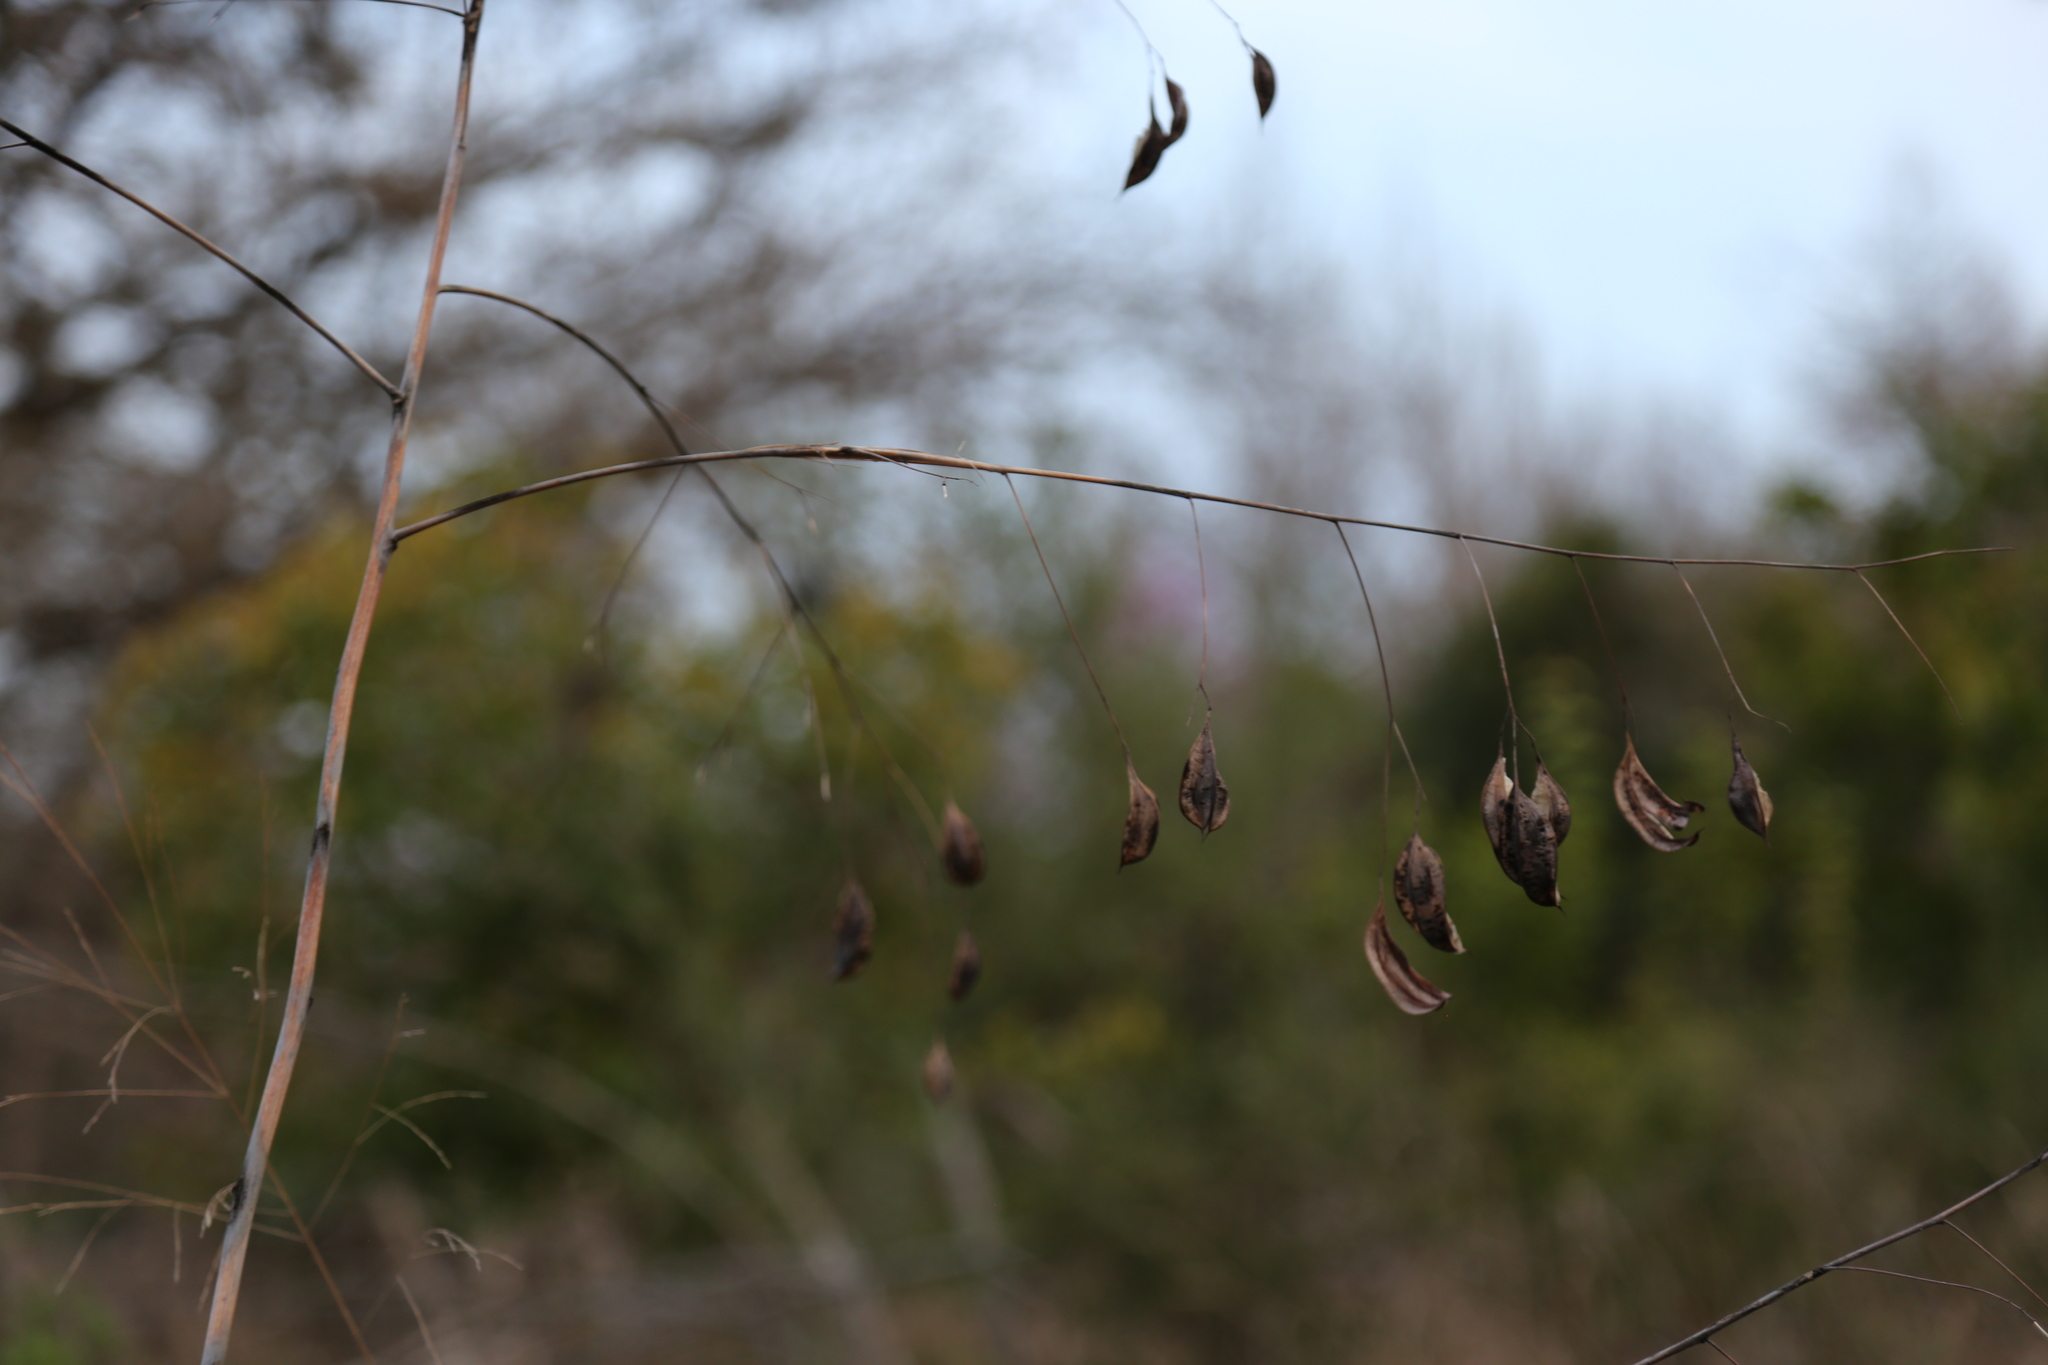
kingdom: Plantae
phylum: Tracheophyta
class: Magnoliopsida
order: Fabales
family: Fabaceae
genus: Sesbania
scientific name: Sesbania vesicaria
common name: Bagpod
